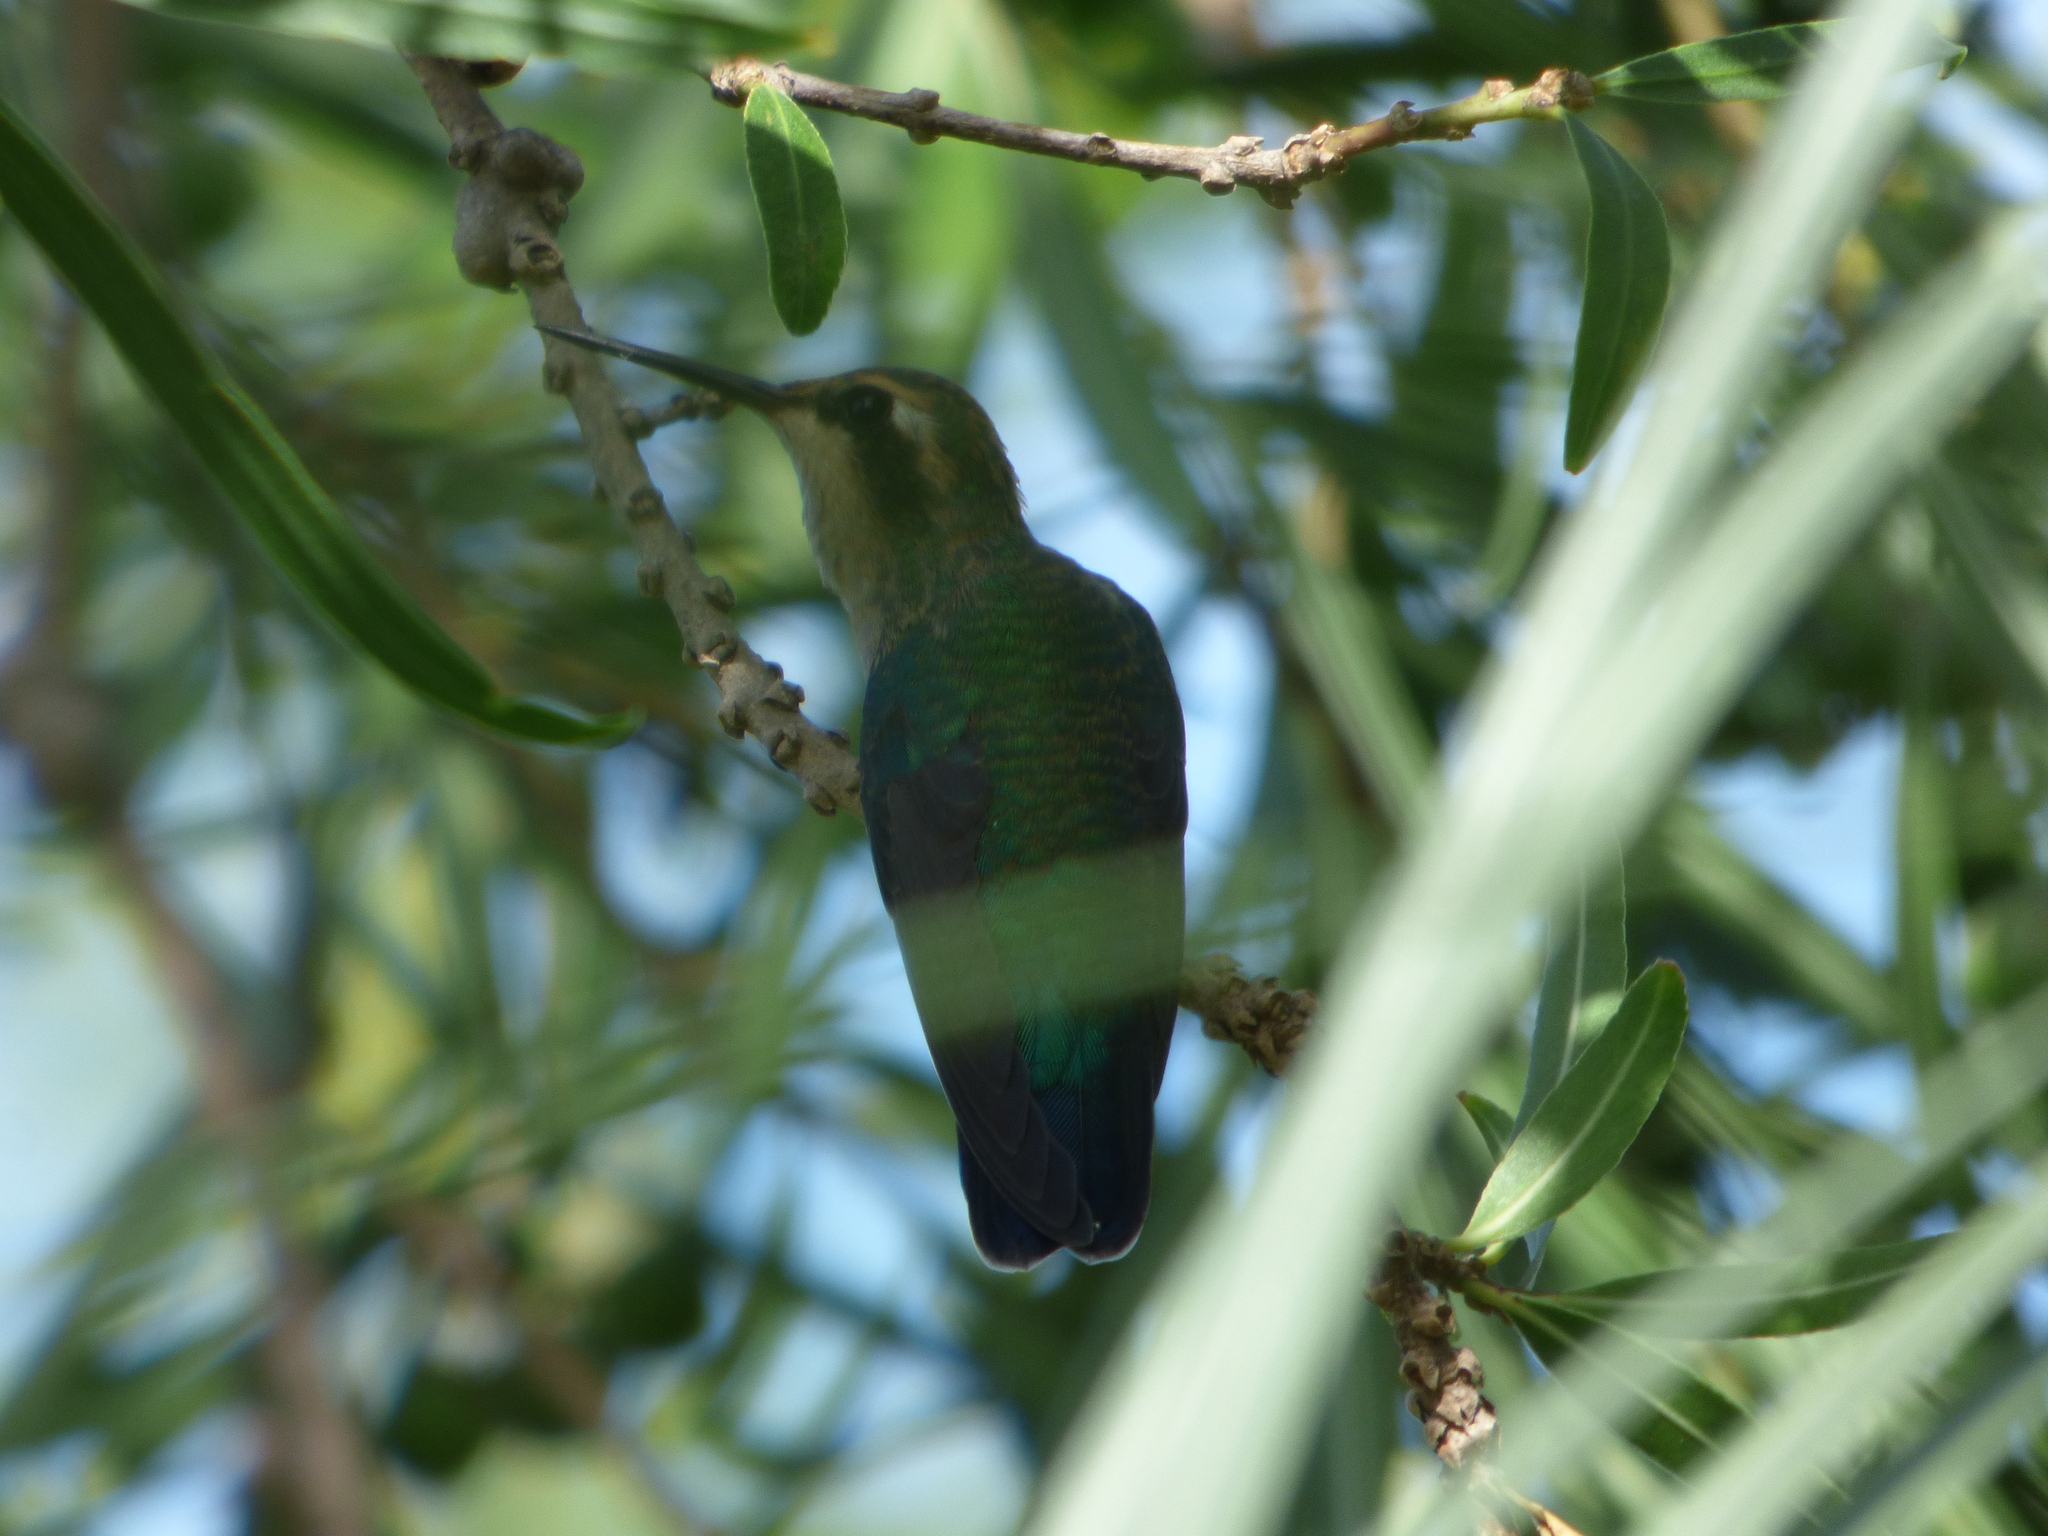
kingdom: Animalia
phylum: Chordata
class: Aves
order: Apodiformes
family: Trochilidae
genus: Chlorostilbon
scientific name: Chlorostilbon lucidus
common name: Glittering-bellied emerald
